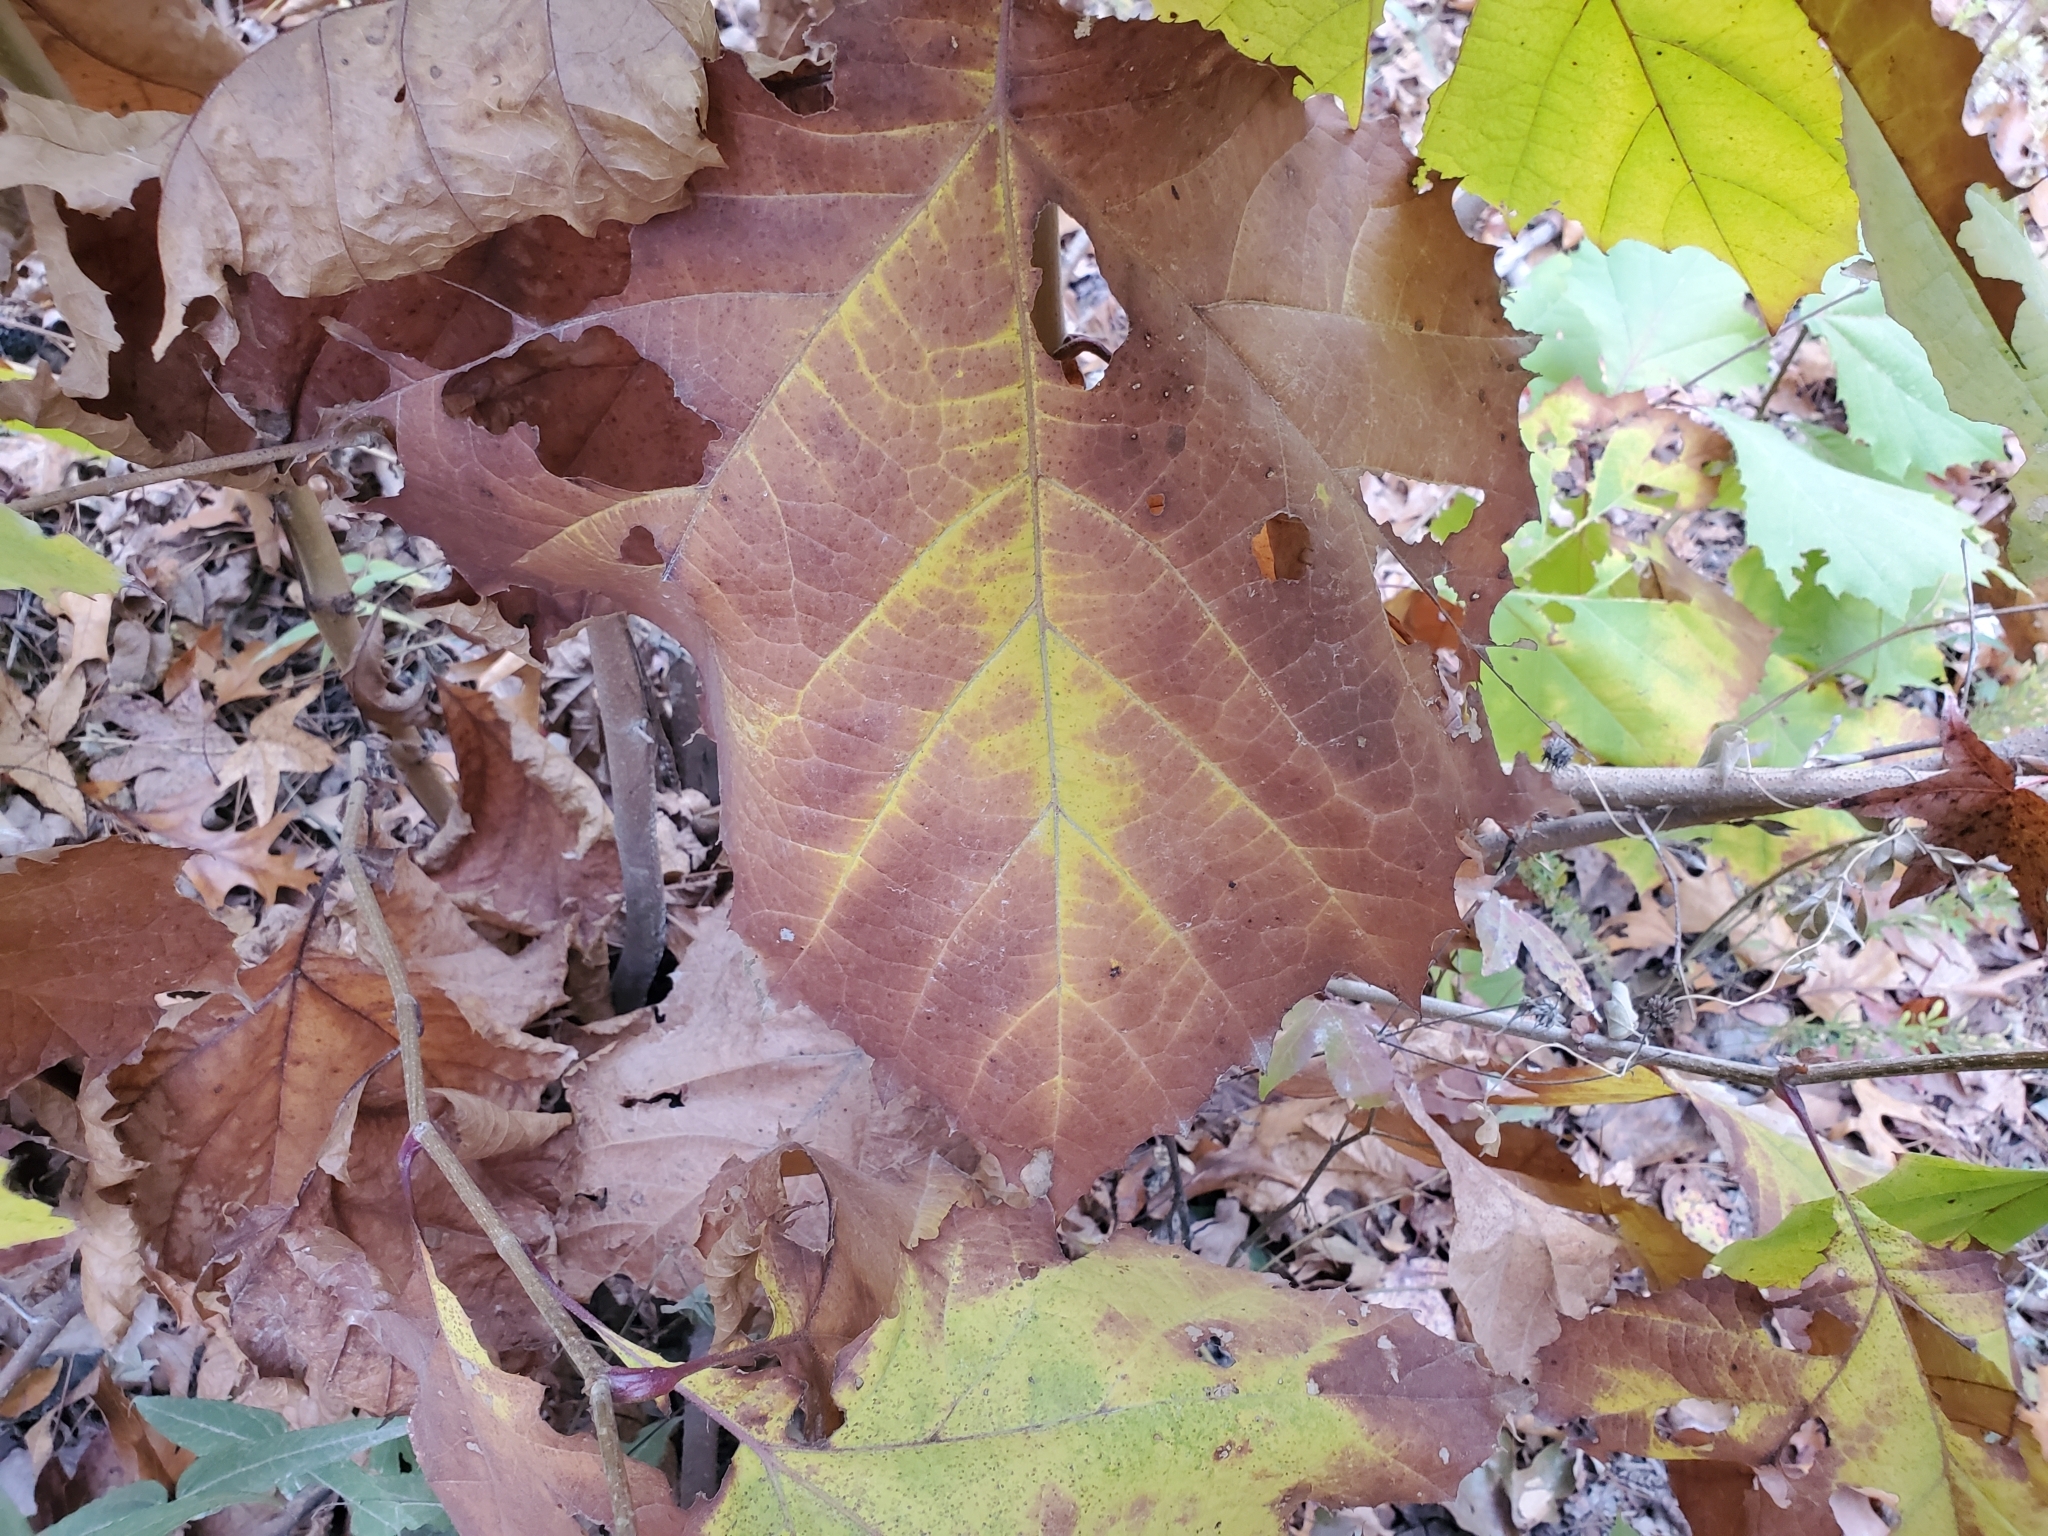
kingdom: Plantae
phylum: Tracheophyta
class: Magnoliopsida
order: Proteales
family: Platanaceae
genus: Platanus
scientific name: Platanus occidentalis
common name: American sycamore
